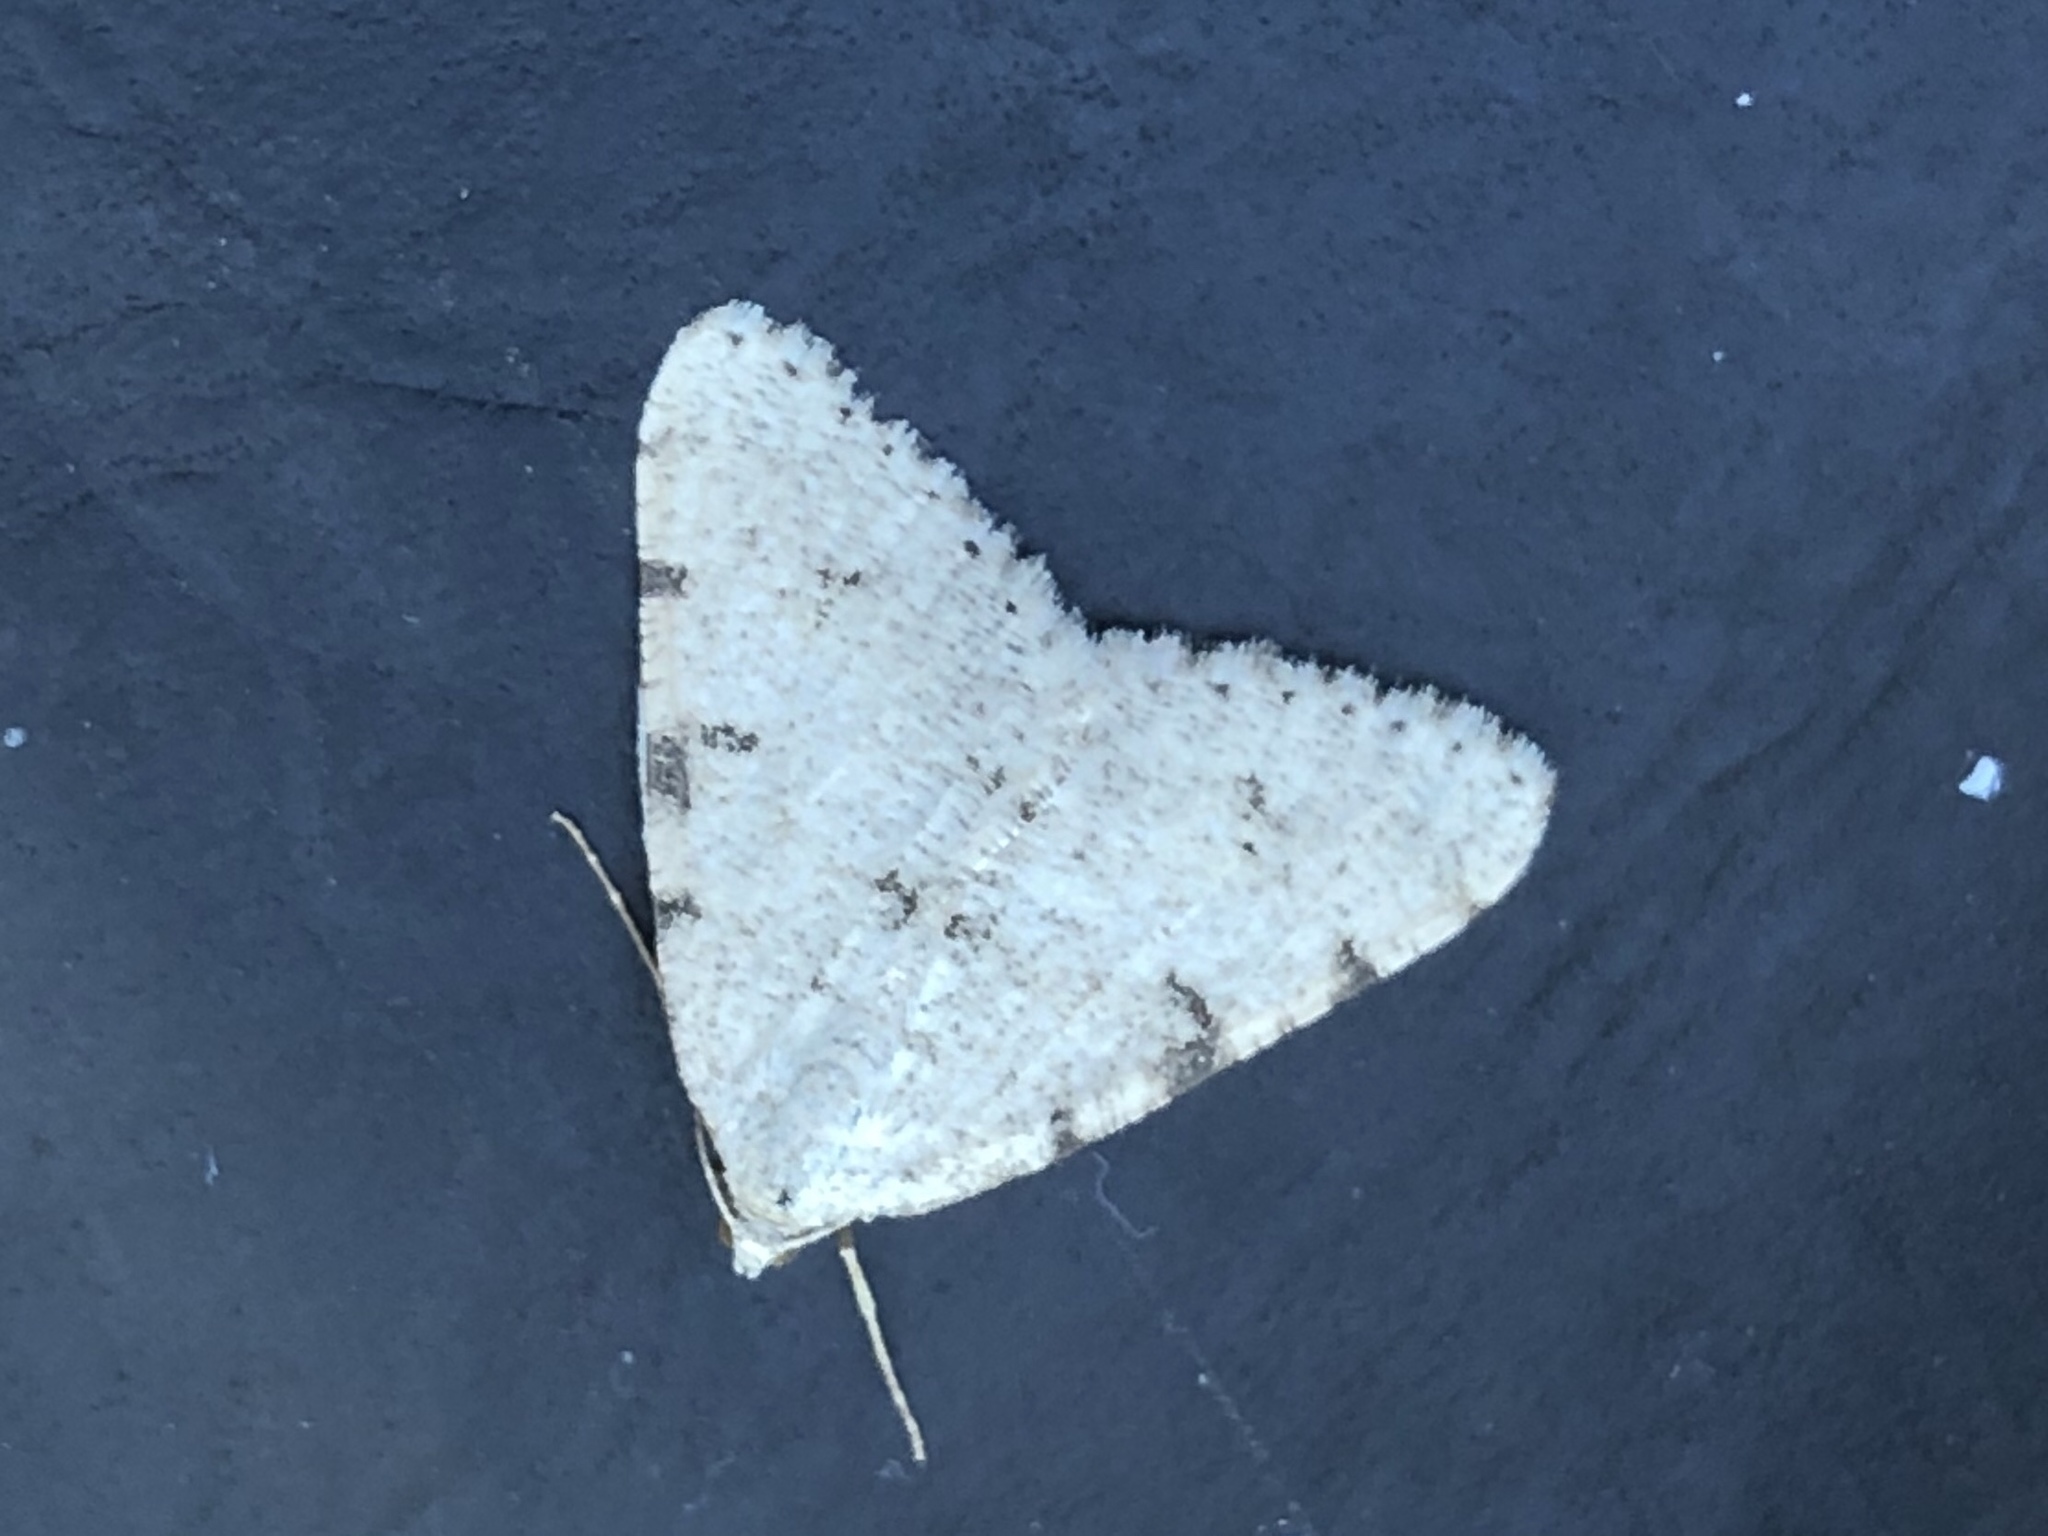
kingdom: Animalia
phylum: Arthropoda
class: Insecta
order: Lepidoptera
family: Geometridae
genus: Digrammia
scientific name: Digrammia colorata
